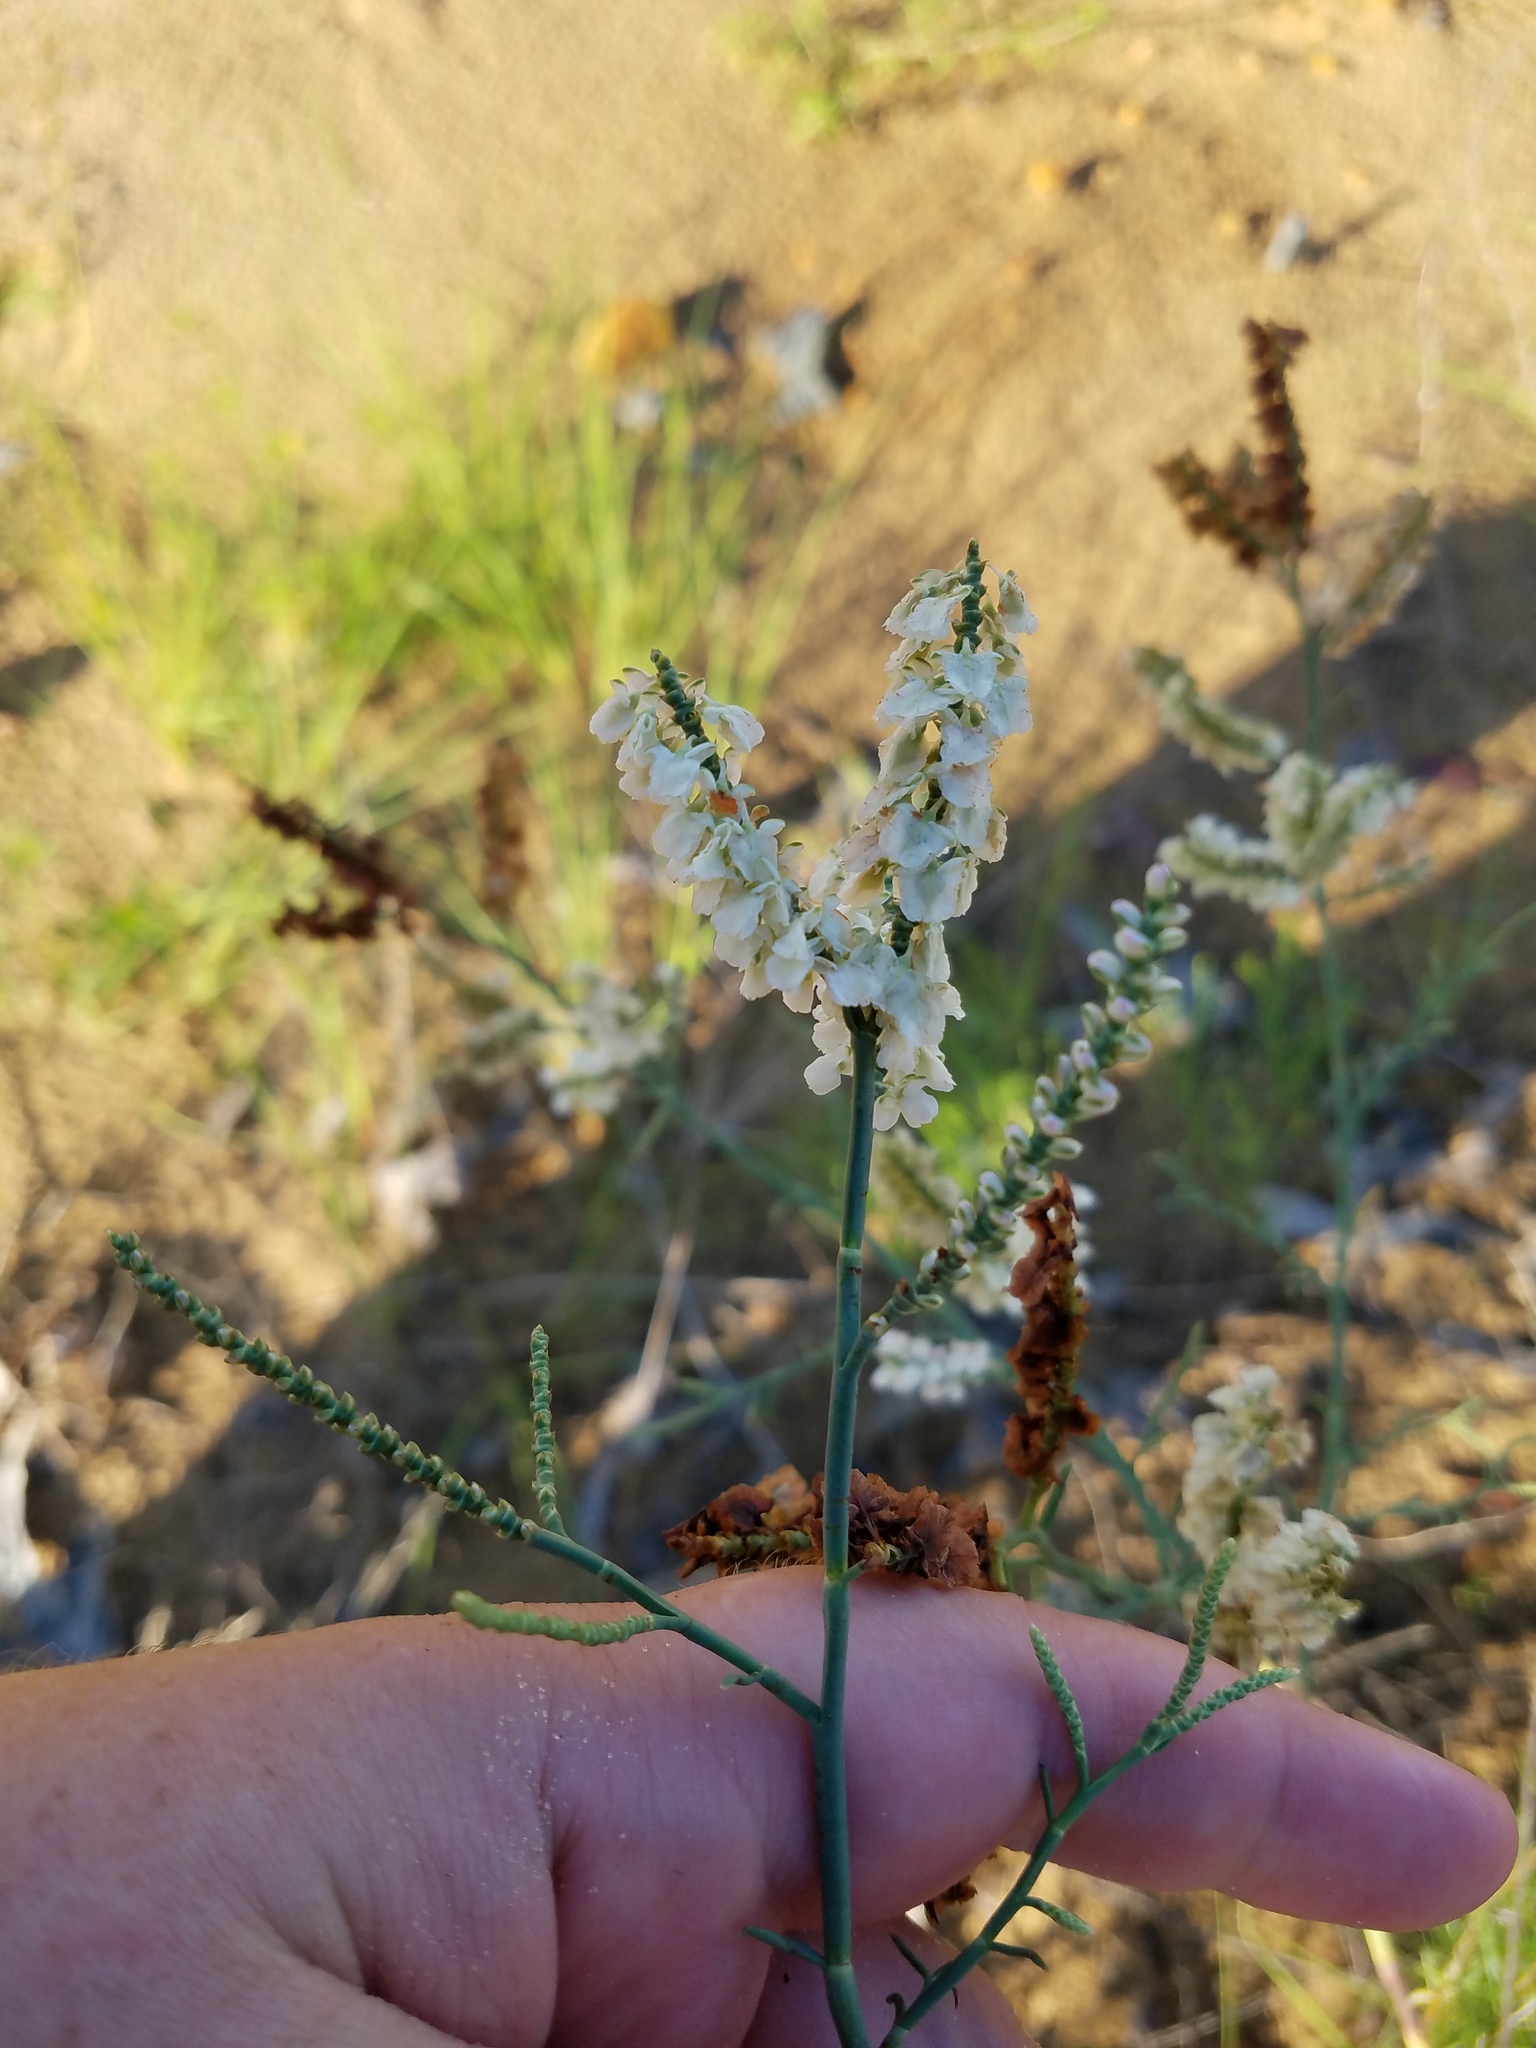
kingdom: Plantae
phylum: Tracheophyta
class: Magnoliopsida
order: Caryophyllales
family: Polygonaceae
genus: Polygonella
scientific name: Polygonella americana
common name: Southern jointweed
